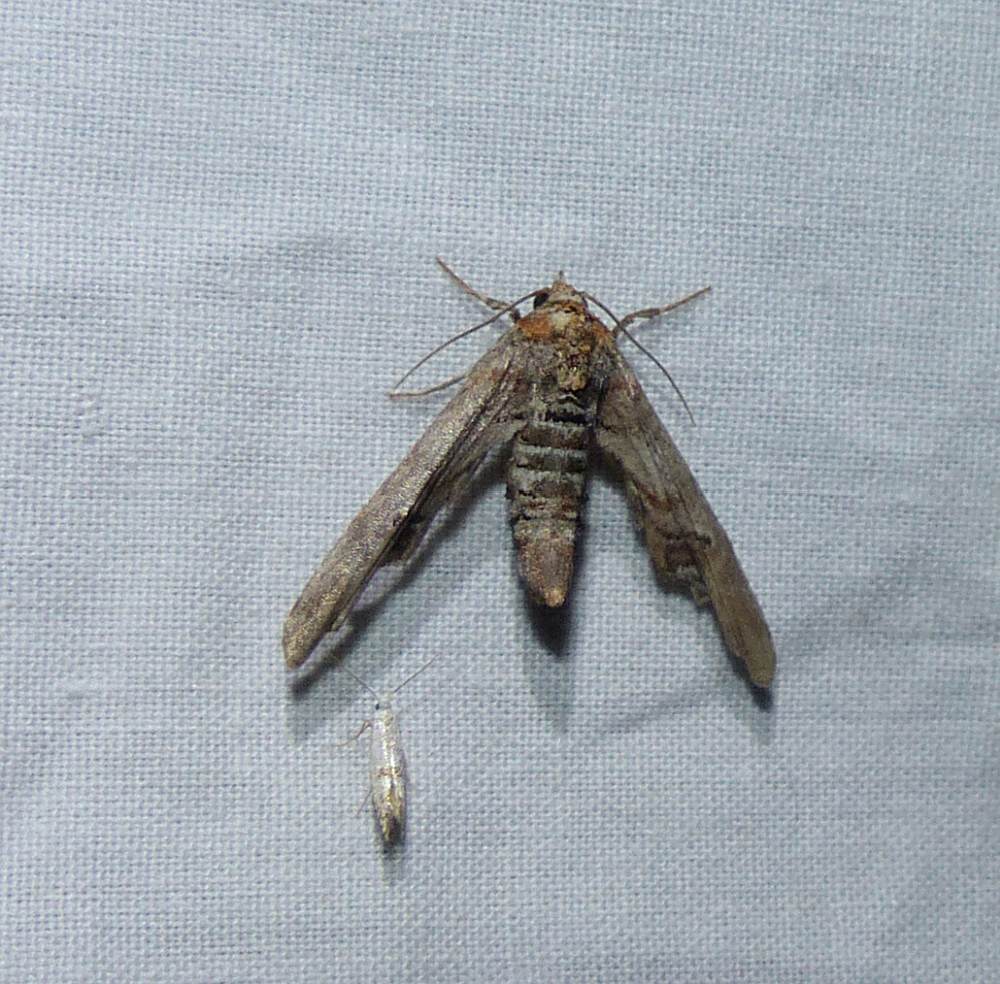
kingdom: Animalia
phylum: Arthropoda
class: Insecta
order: Lepidoptera
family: Euteliidae
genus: Marathyssa
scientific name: Marathyssa inficita
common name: Dark marathyssa moth
